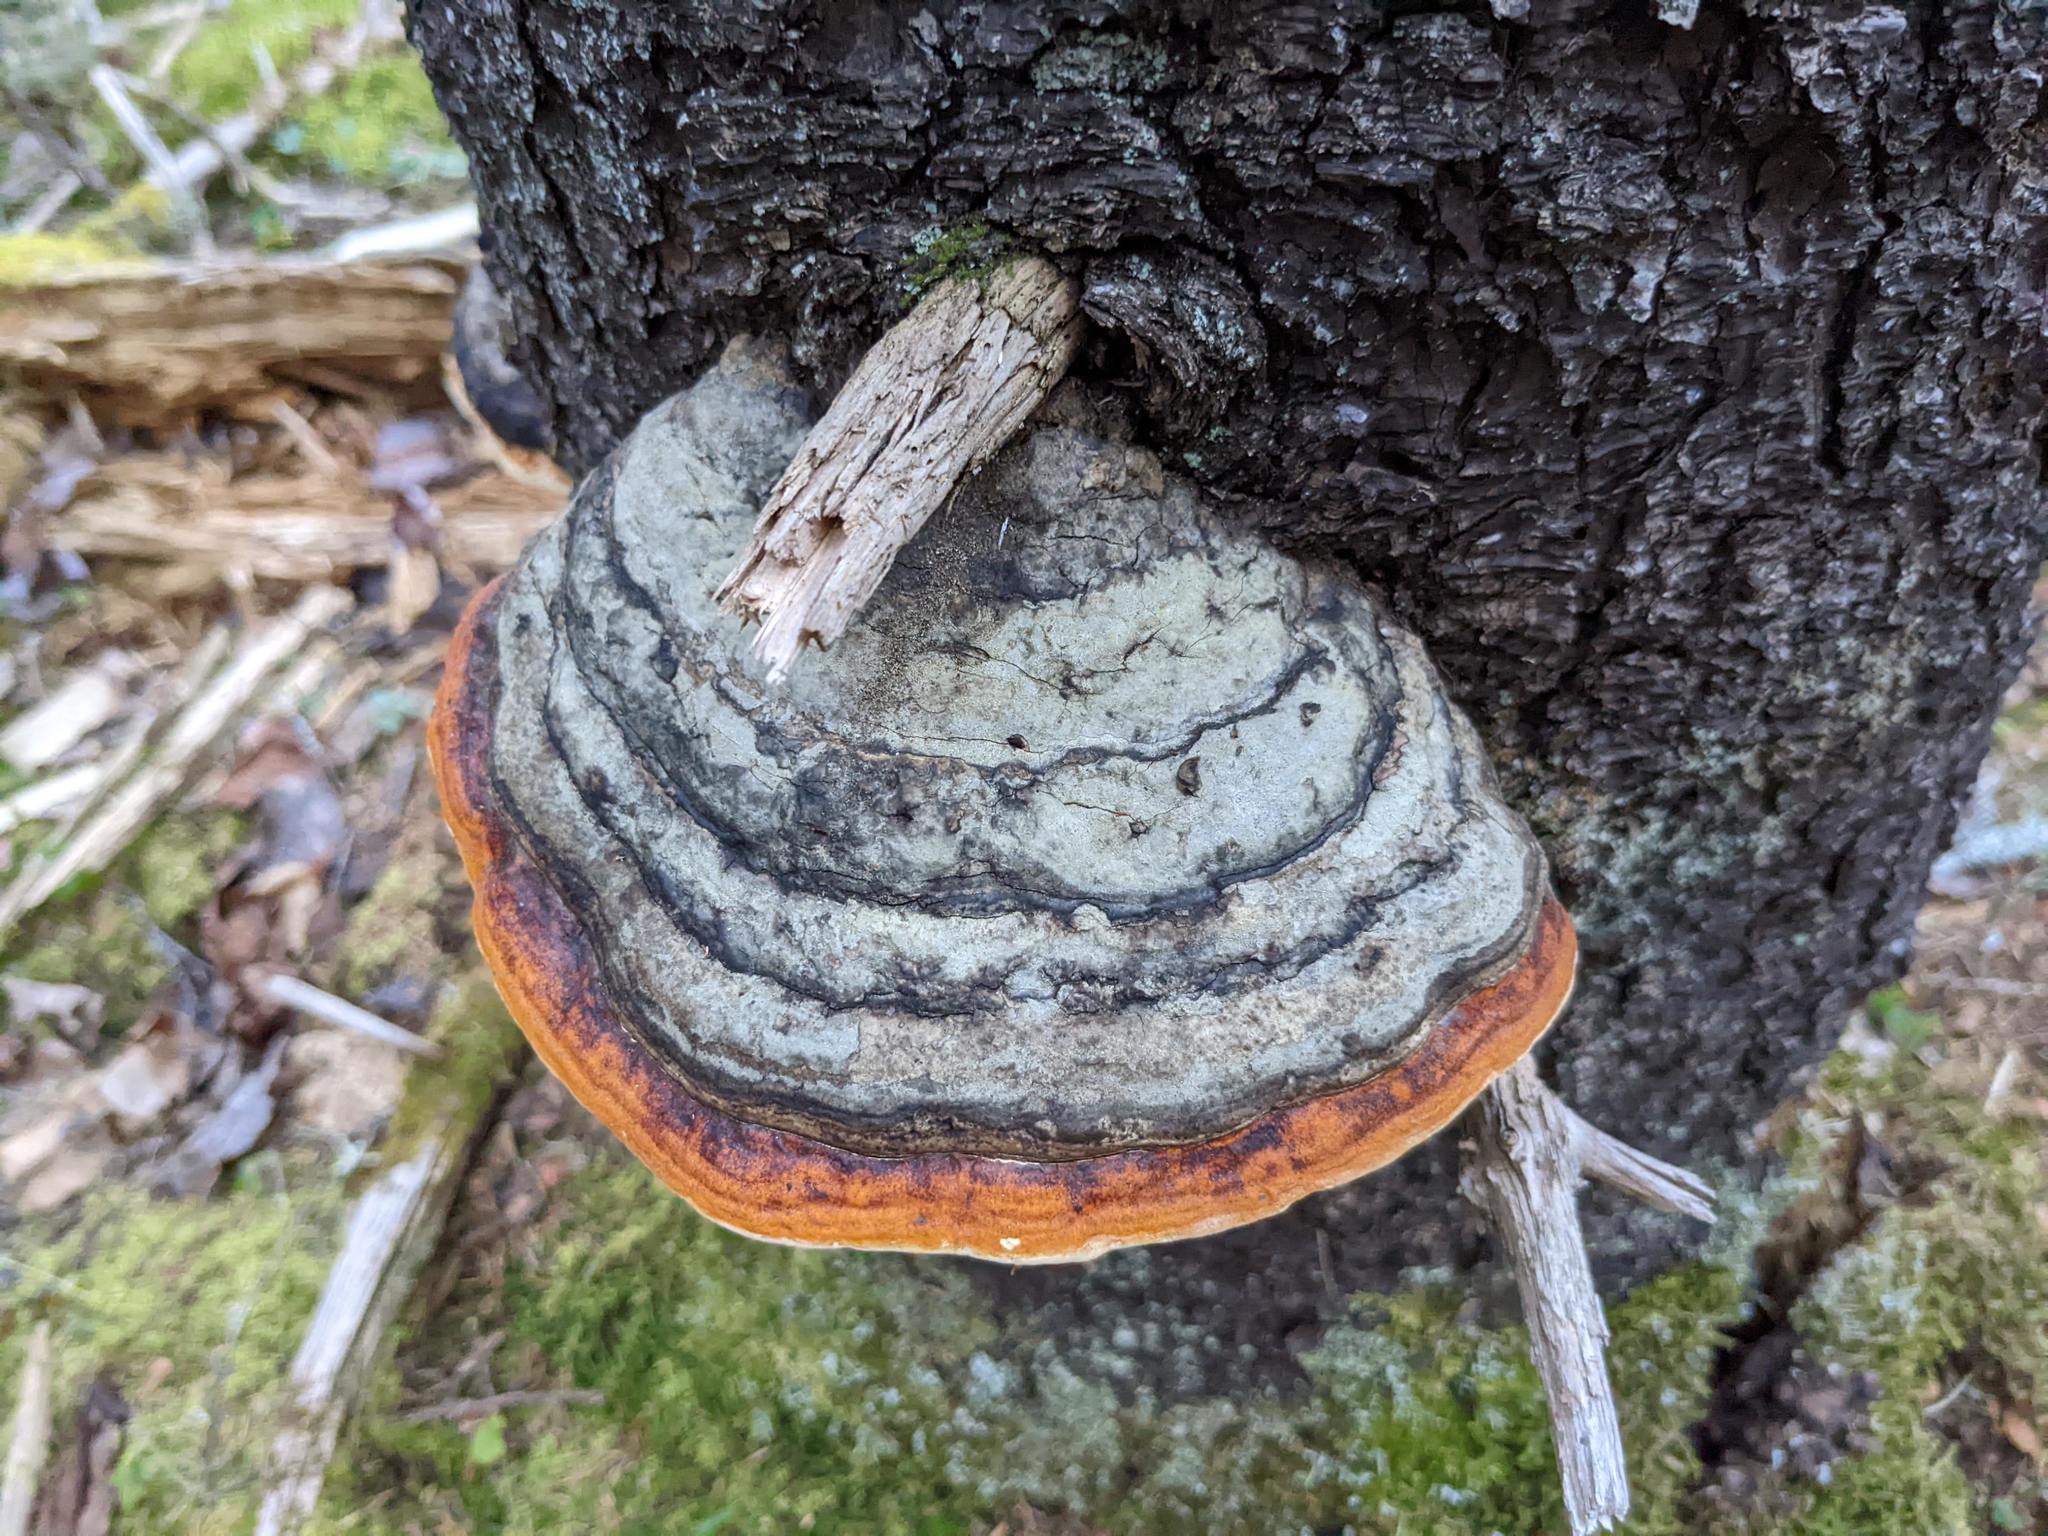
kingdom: Fungi
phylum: Basidiomycota
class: Agaricomycetes
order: Polyporales
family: Fomitopsidaceae
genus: Fomitopsis
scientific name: Fomitopsis mounceae
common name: Northern red belt
